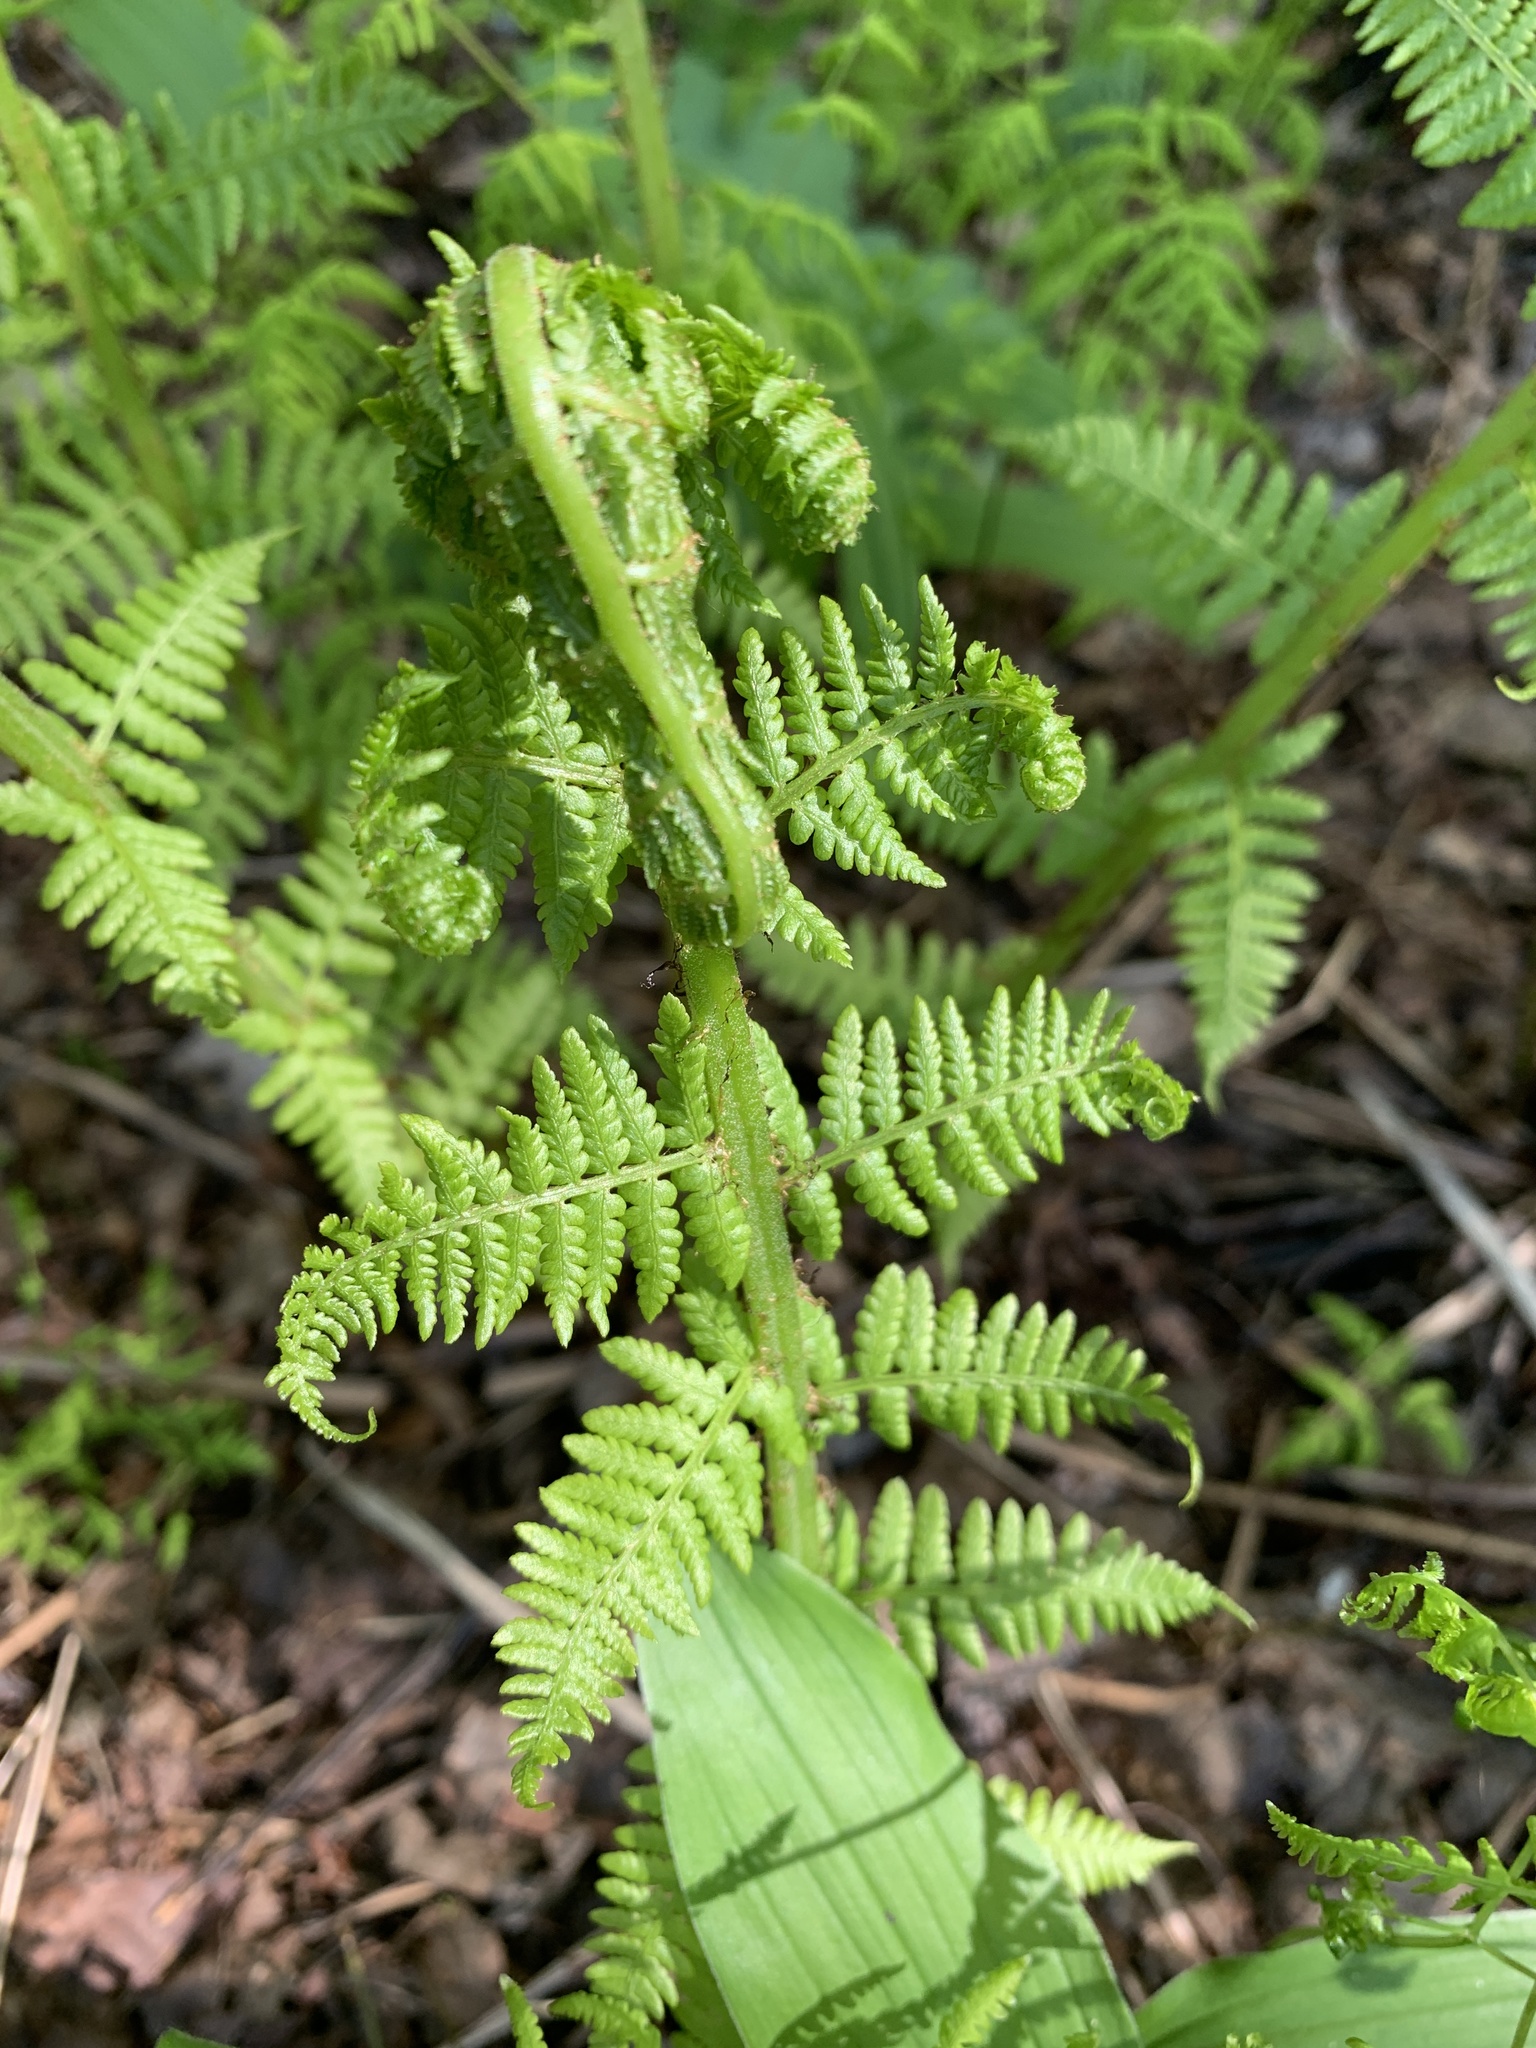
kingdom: Plantae
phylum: Tracheophyta
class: Polypodiopsida
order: Polypodiales
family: Athyriaceae
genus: Athyrium
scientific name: Athyrium filix-femina
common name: Lady fern
